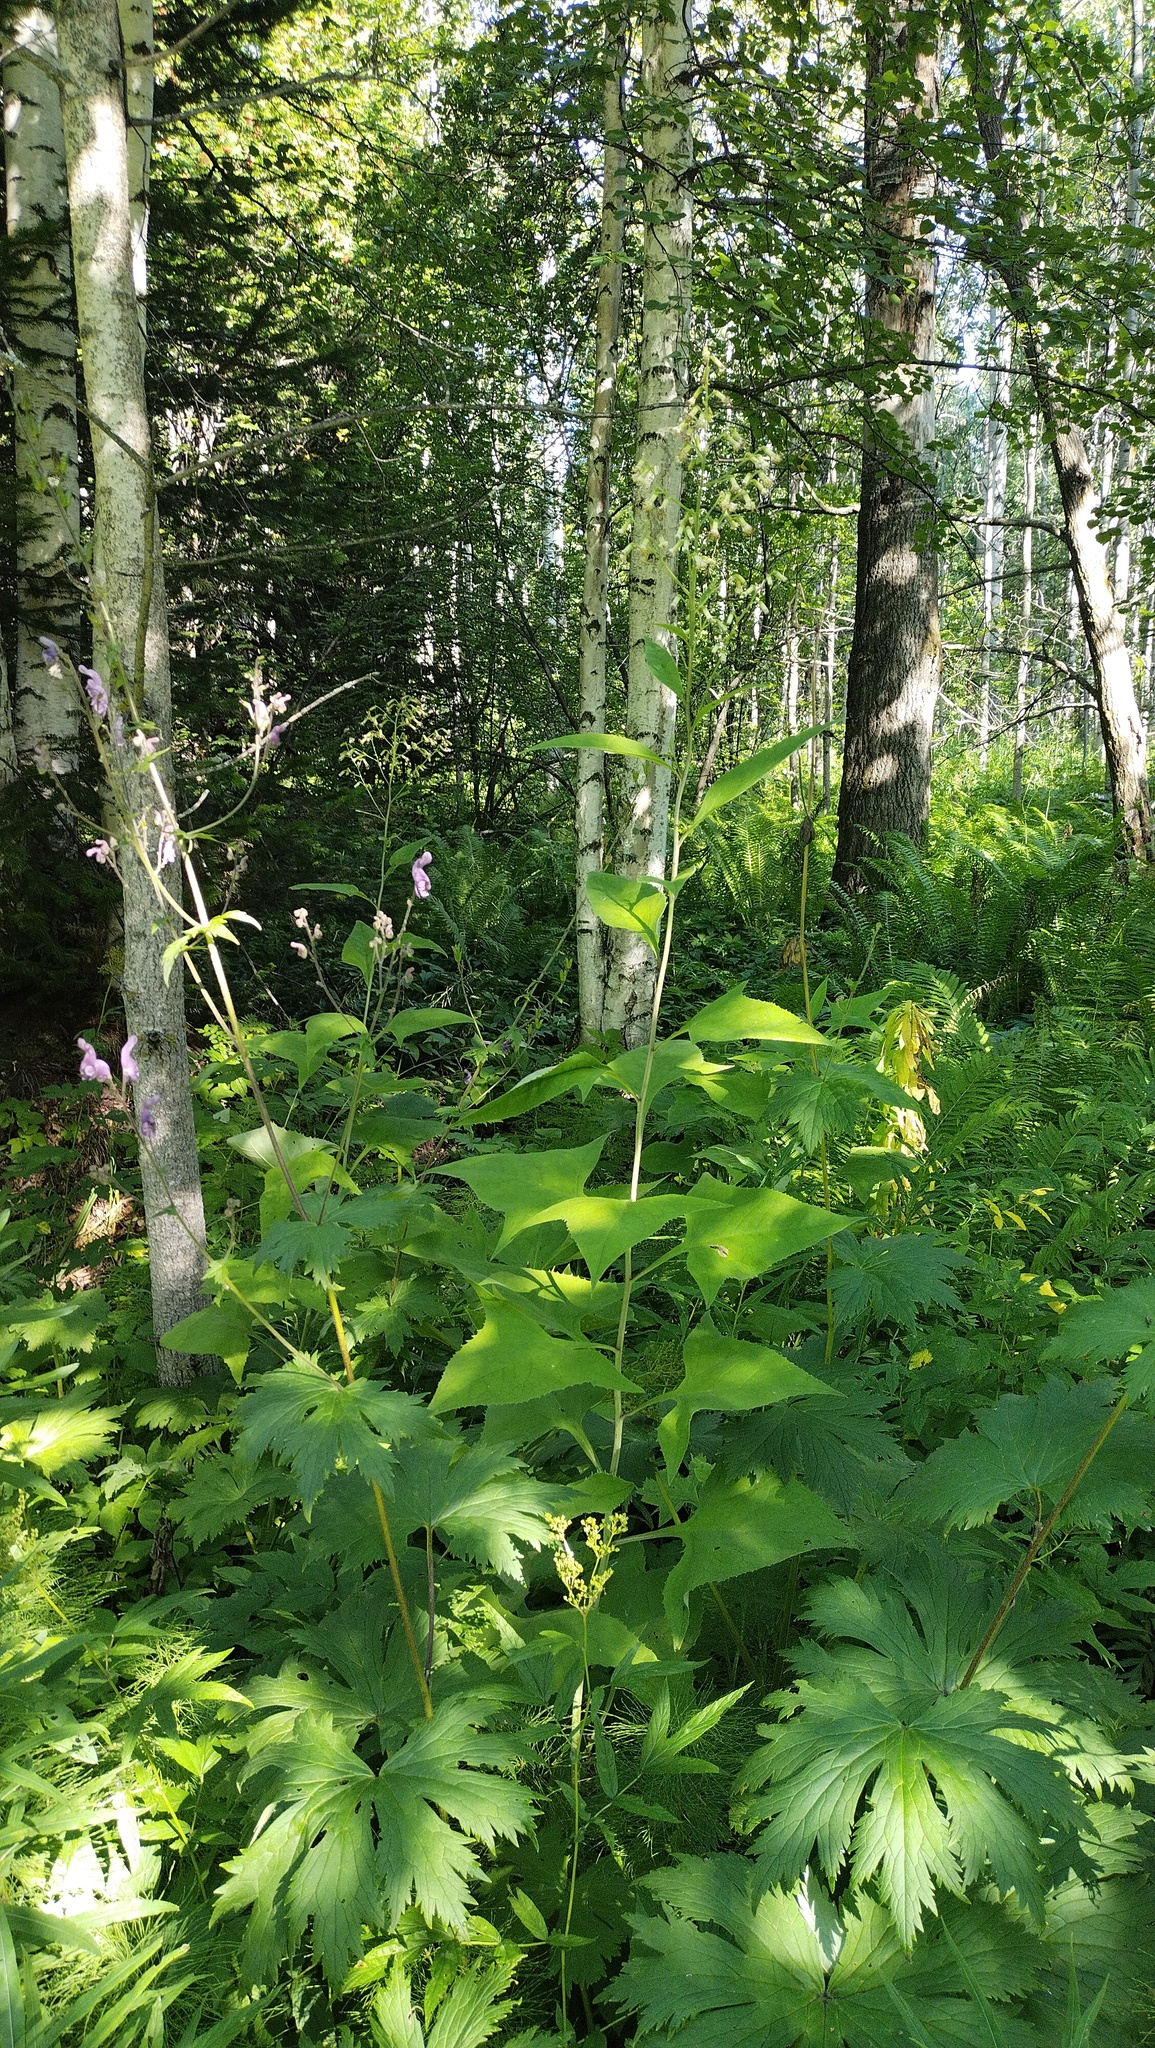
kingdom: Plantae
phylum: Tracheophyta
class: Magnoliopsida
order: Asterales
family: Asteraceae
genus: Parasenecio
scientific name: Parasenecio hastatus
